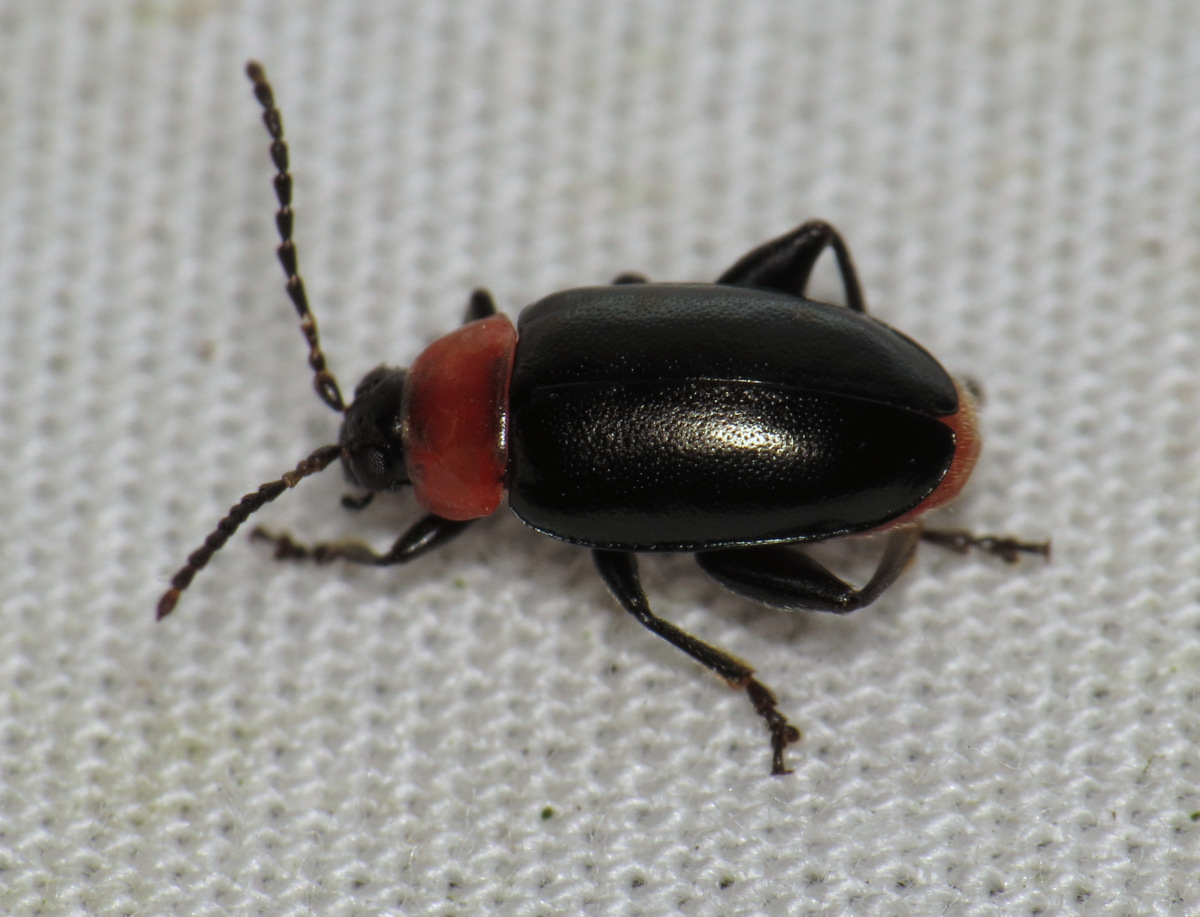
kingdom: Animalia
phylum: Arthropoda
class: Insecta
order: Coleoptera
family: Chrysomelidae
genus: Disonycha
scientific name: Disonycha xanthomelas
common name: Spinach flea beetle
